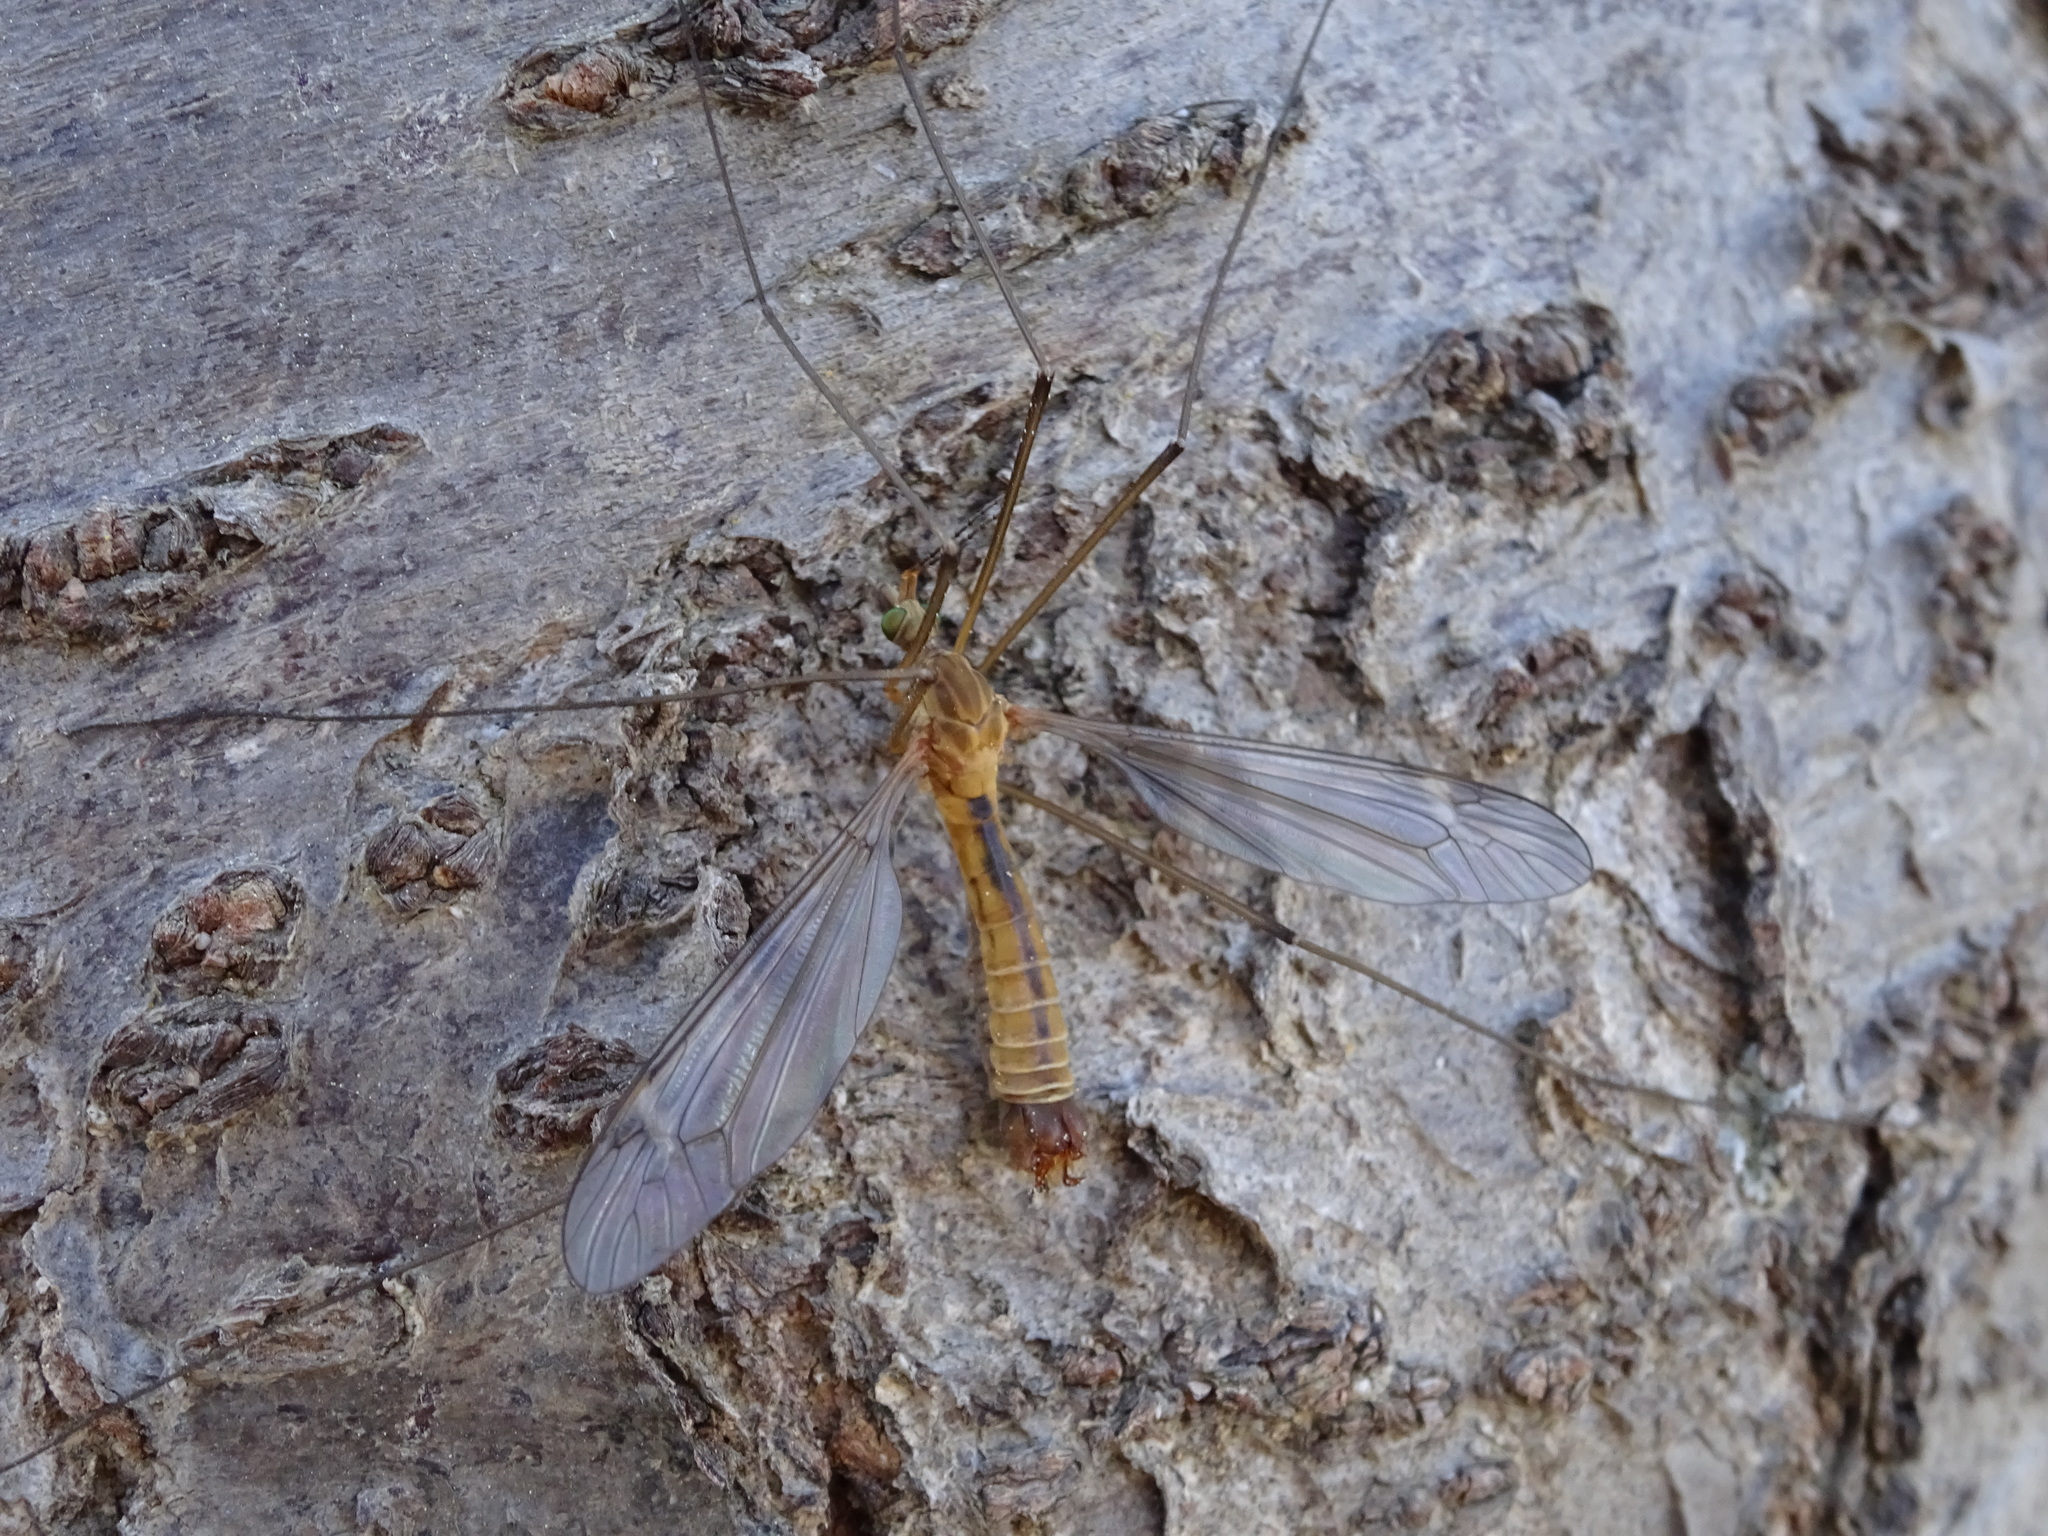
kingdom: Animalia
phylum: Arthropoda
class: Insecta
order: Diptera
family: Tipulidae
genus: Tipula
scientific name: Tipula bezzii
